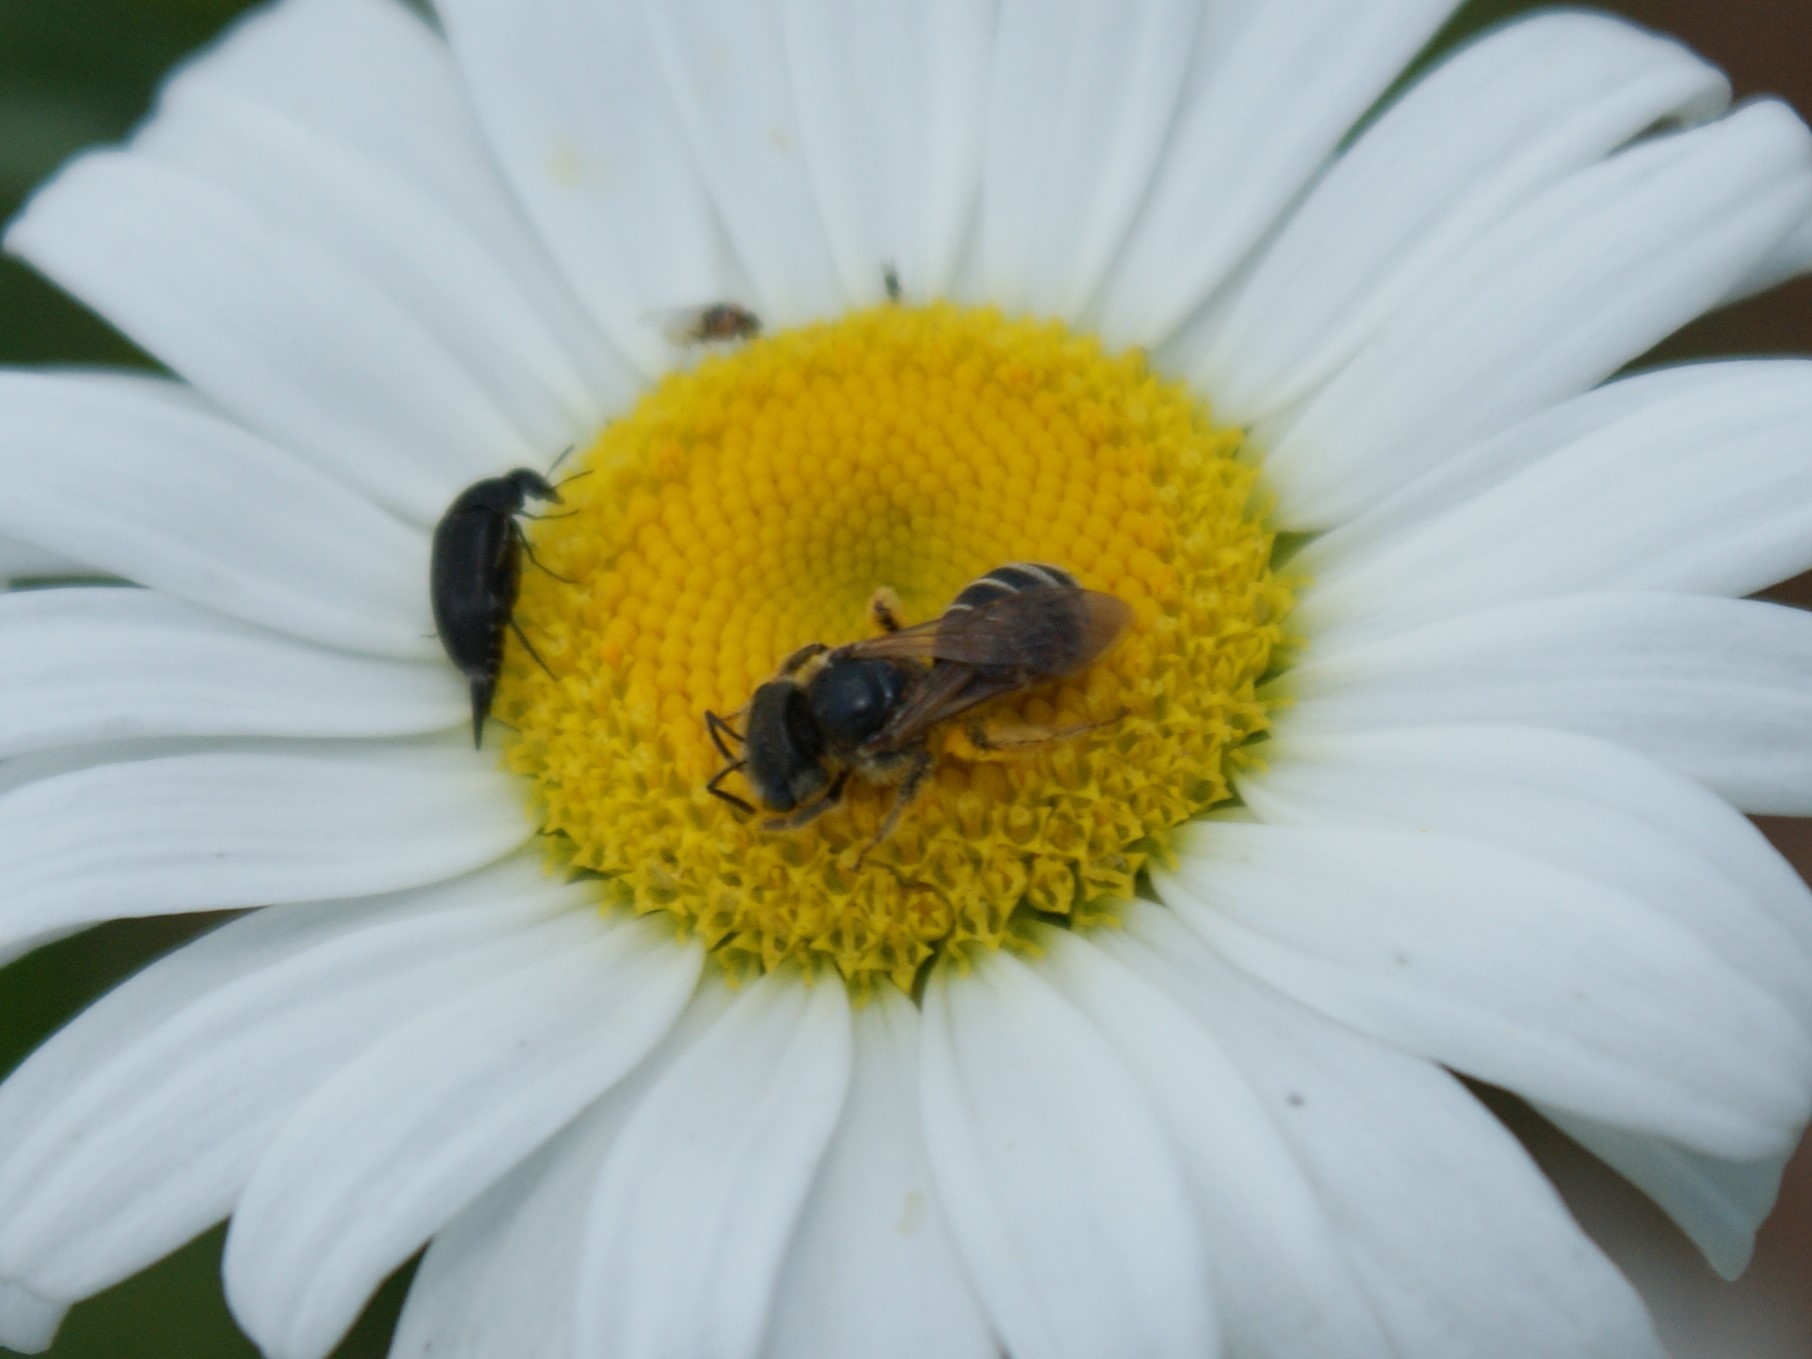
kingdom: Animalia
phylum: Arthropoda
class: Insecta
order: Hymenoptera
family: Halictidae
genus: Halictus
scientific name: Halictus ligatus
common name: Ligated furrow bee
